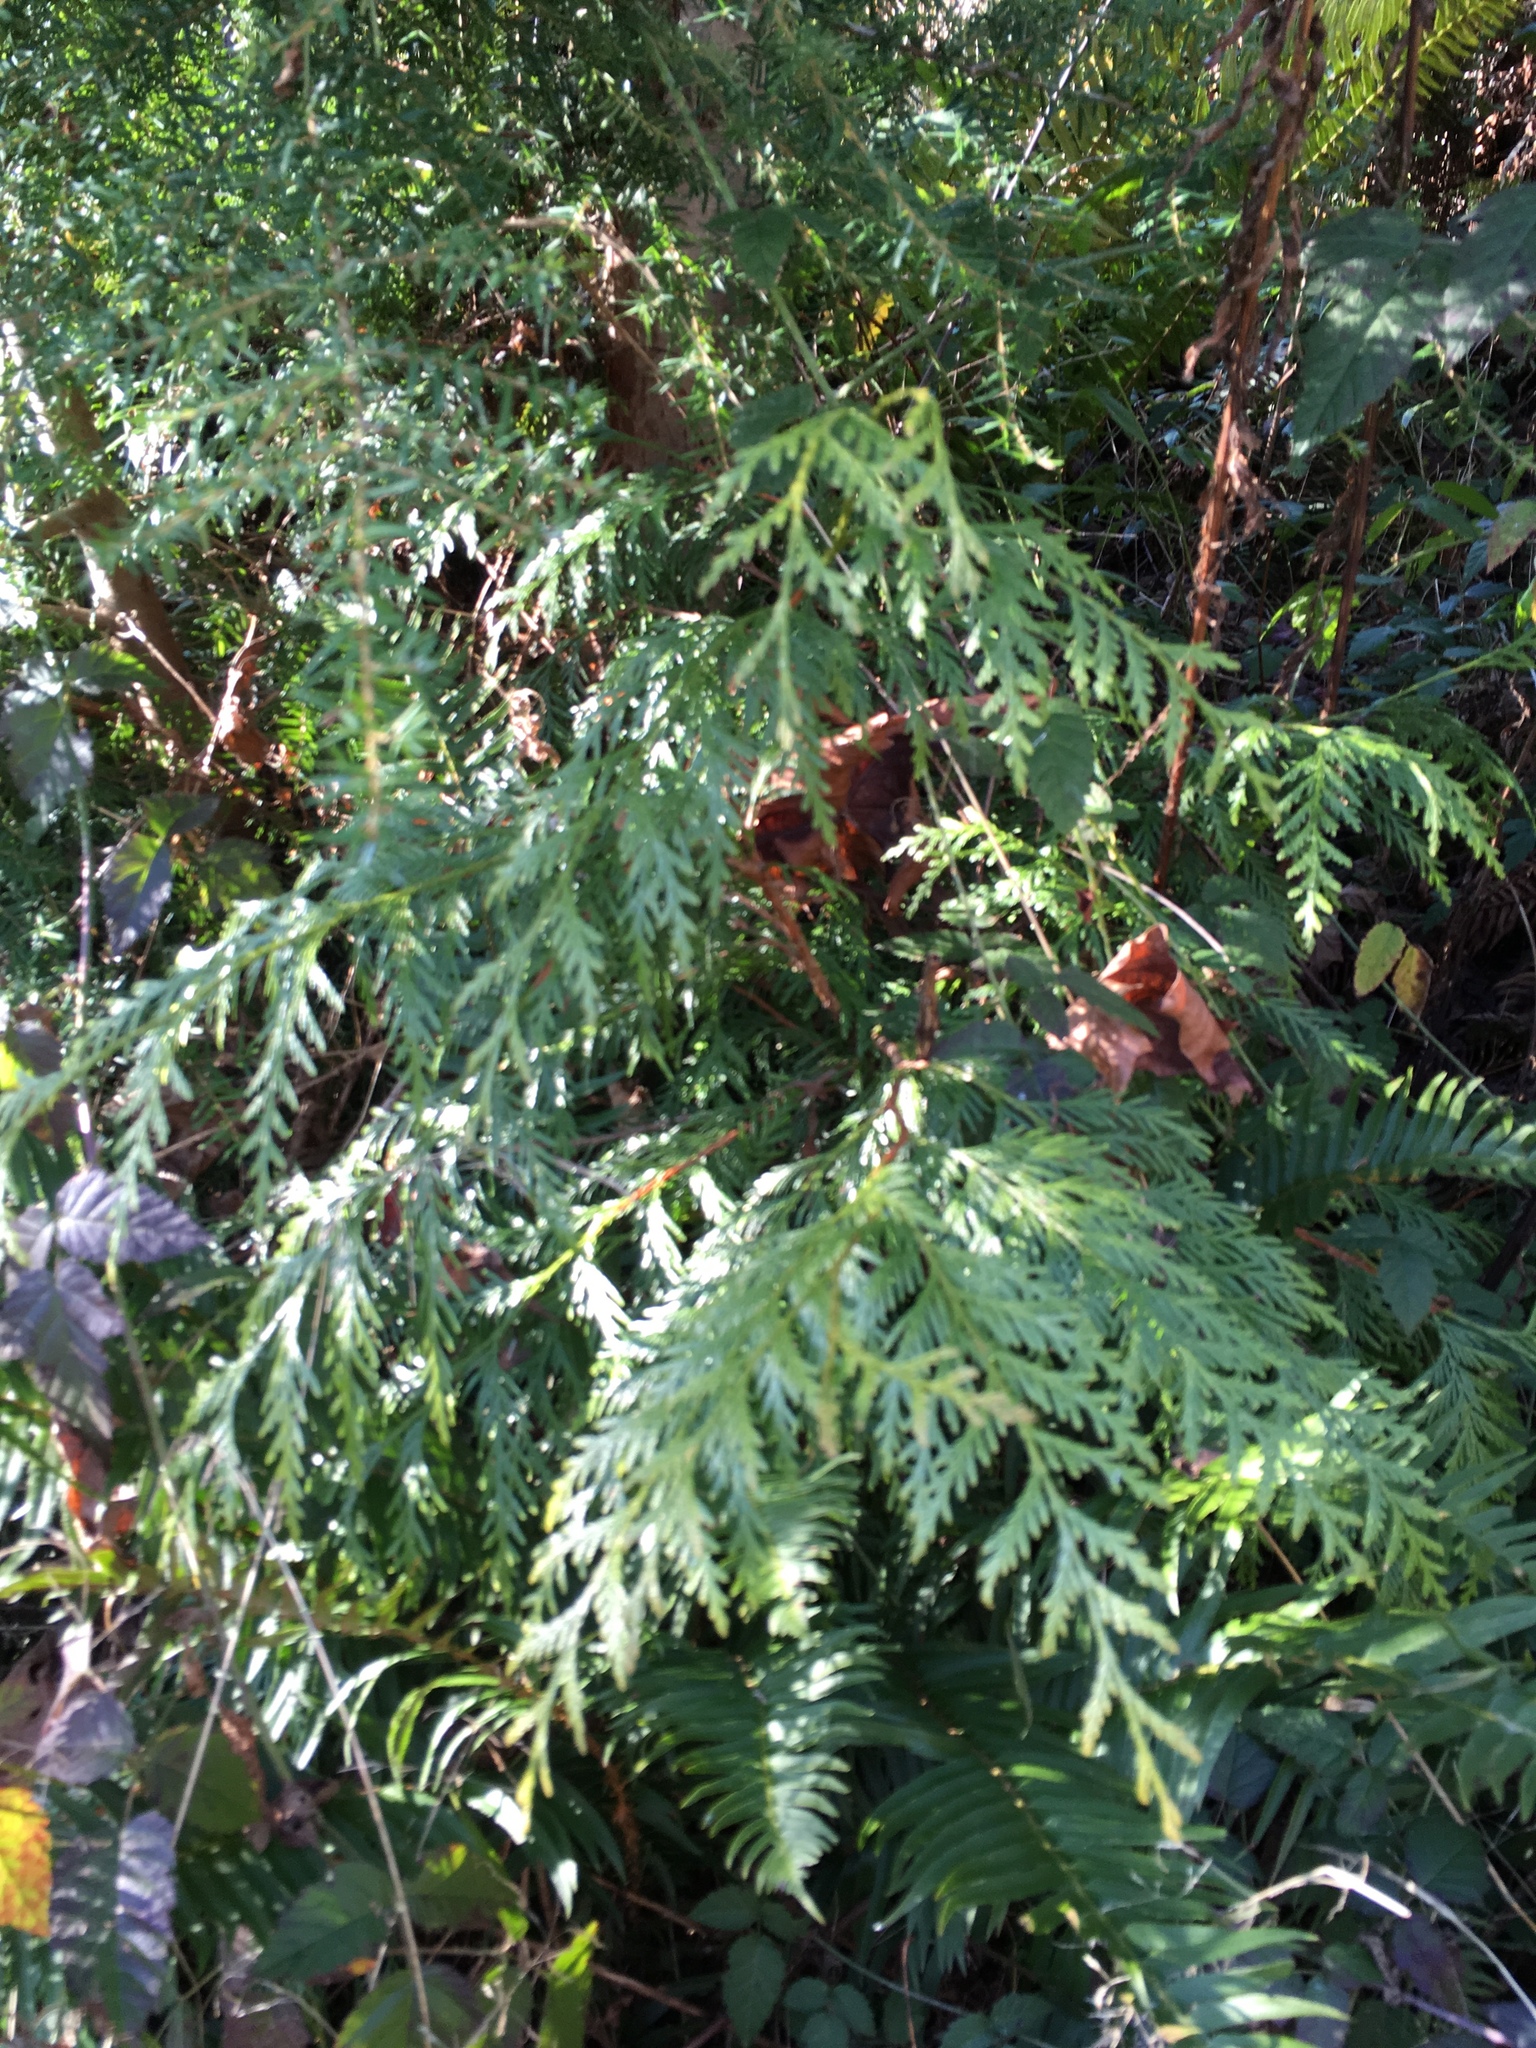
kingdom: Plantae
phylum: Tracheophyta
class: Pinopsida
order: Pinales
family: Cupressaceae
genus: Thuja
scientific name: Thuja plicata
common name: Western red-cedar
